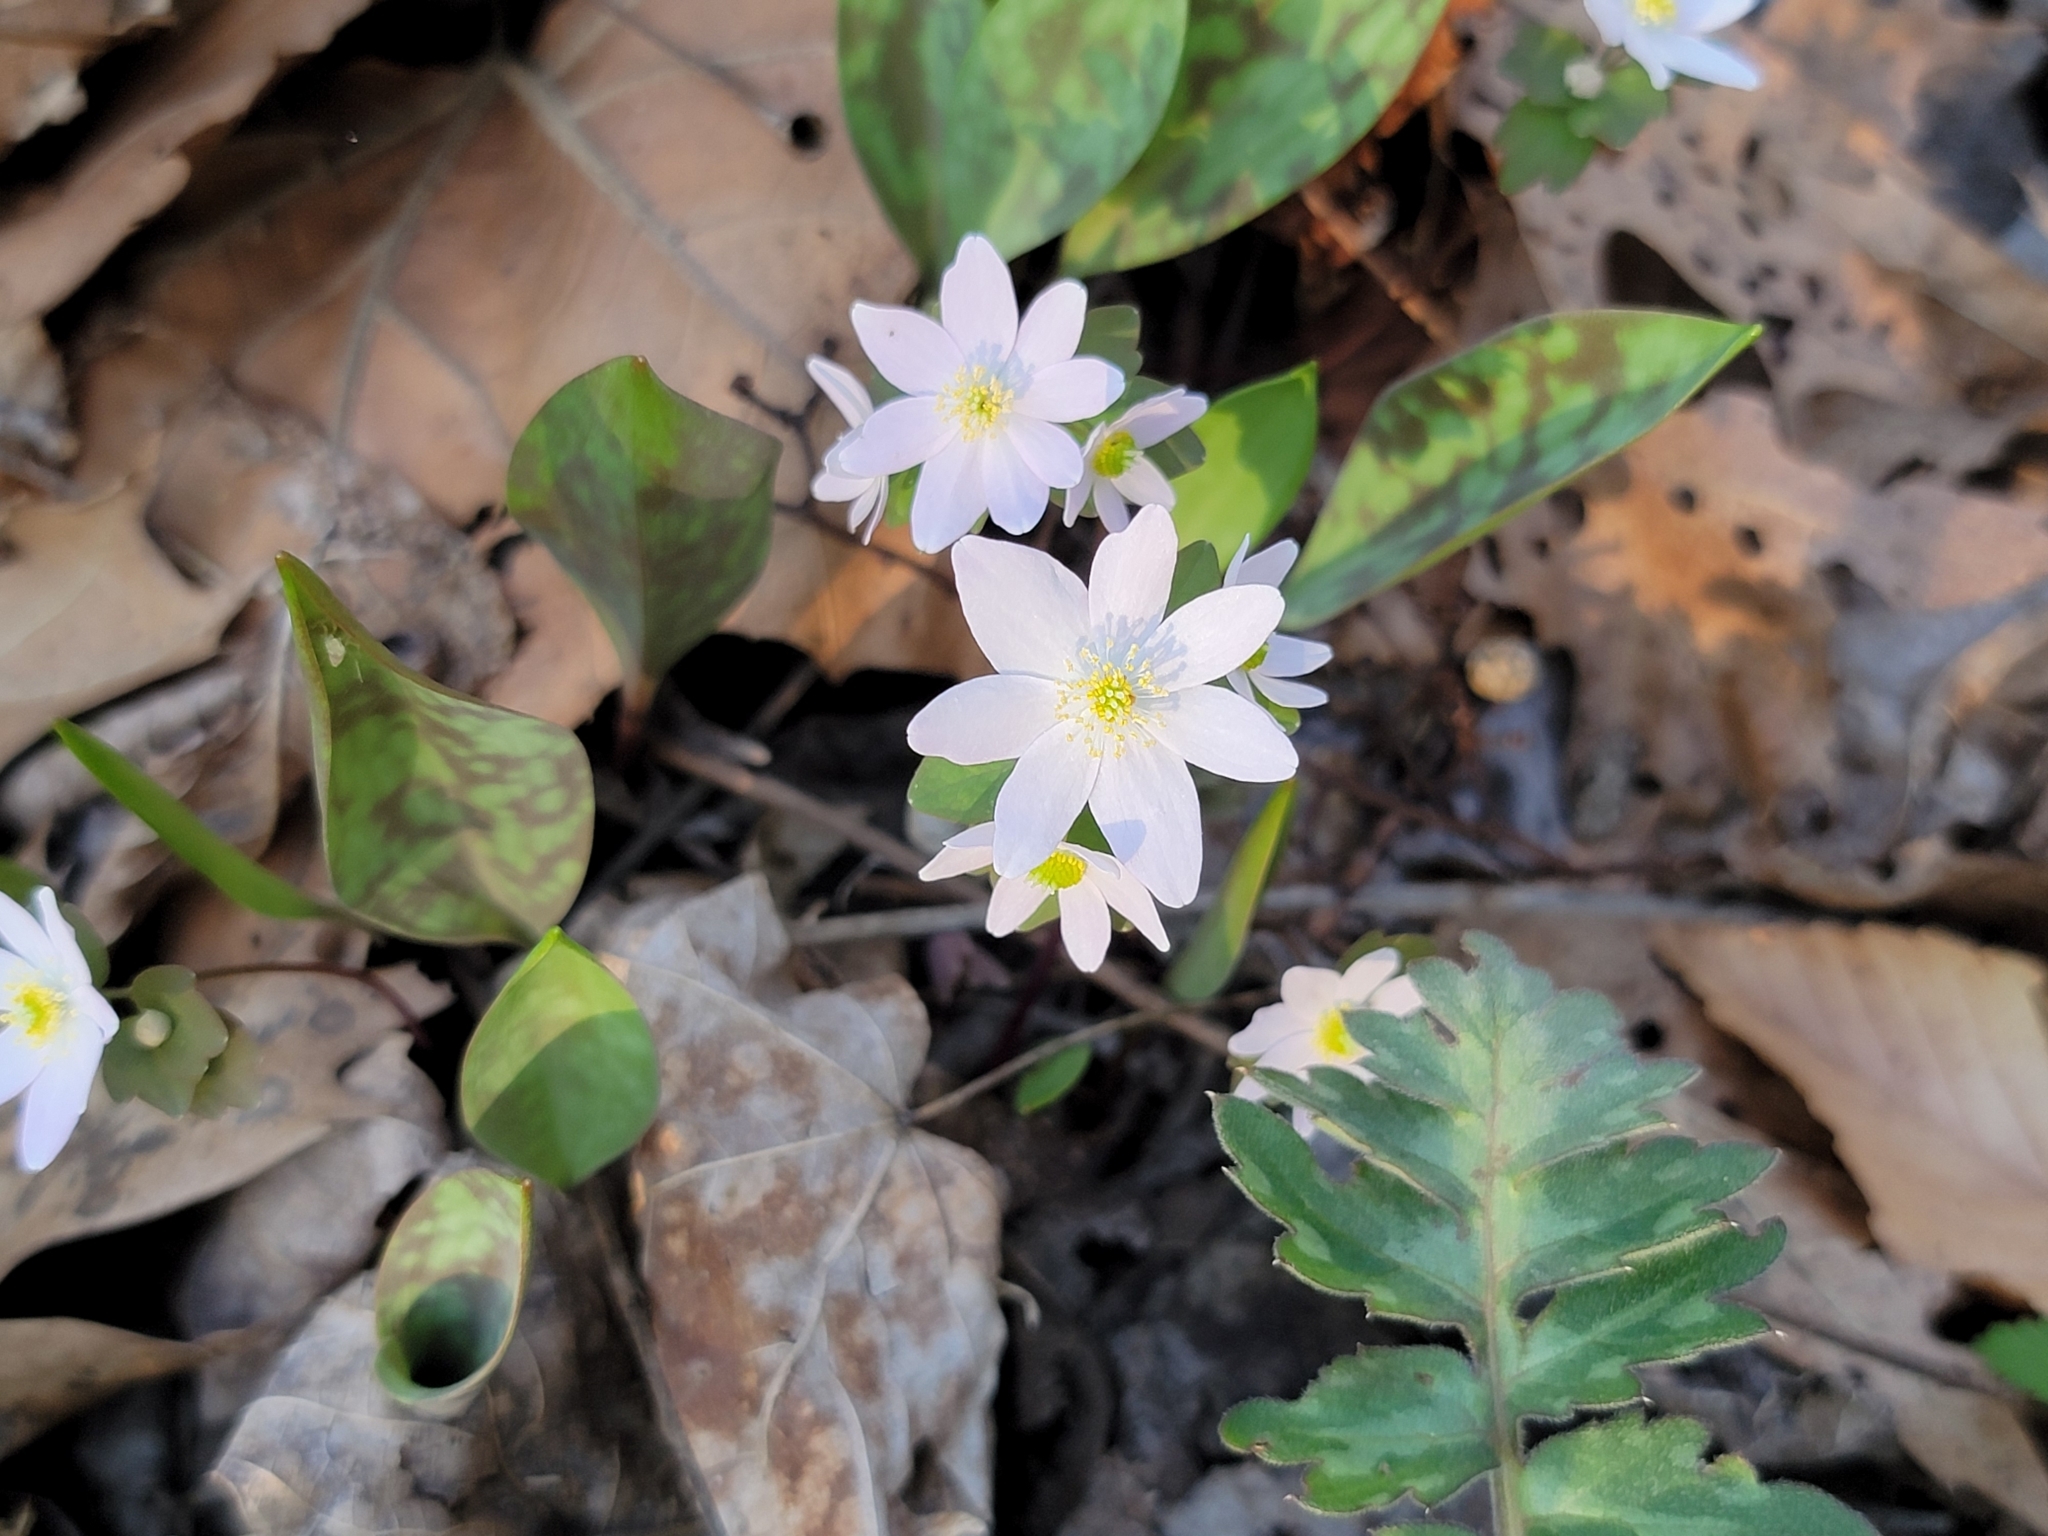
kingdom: Plantae
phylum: Tracheophyta
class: Magnoliopsida
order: Ranunculales
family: Ranunculaceae
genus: Thalictrum
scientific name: Thalictrum thalictroides
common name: Rue-anemone
